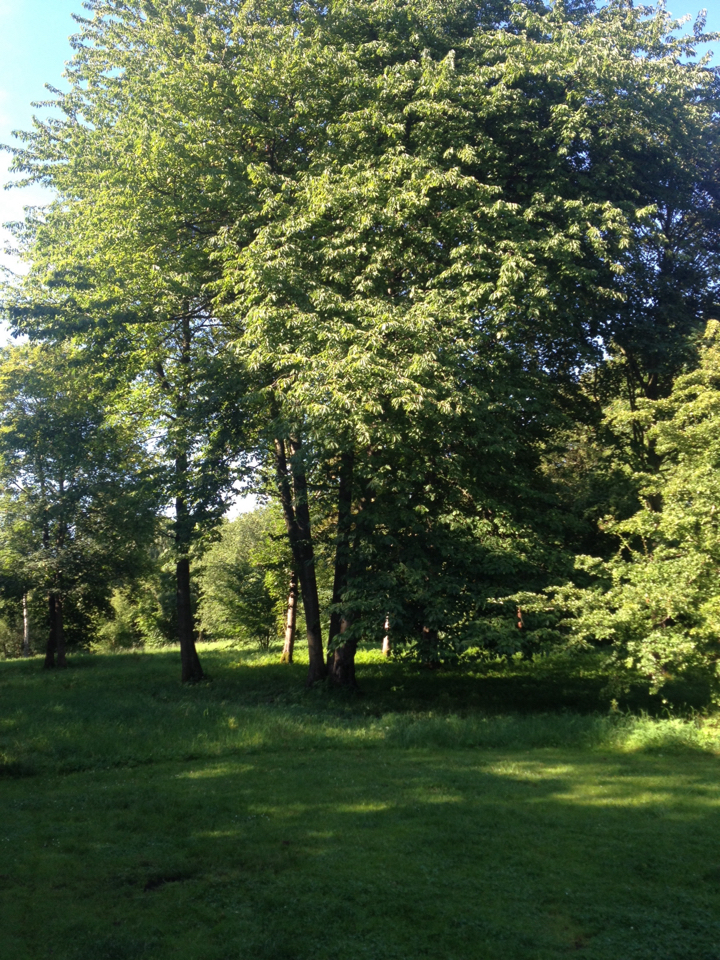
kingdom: Plantae
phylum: Tracheophyta
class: Magnoliopsida
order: Rosales
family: Rosaceae
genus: Prunus
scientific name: Prunus avium
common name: Sweet cherry
